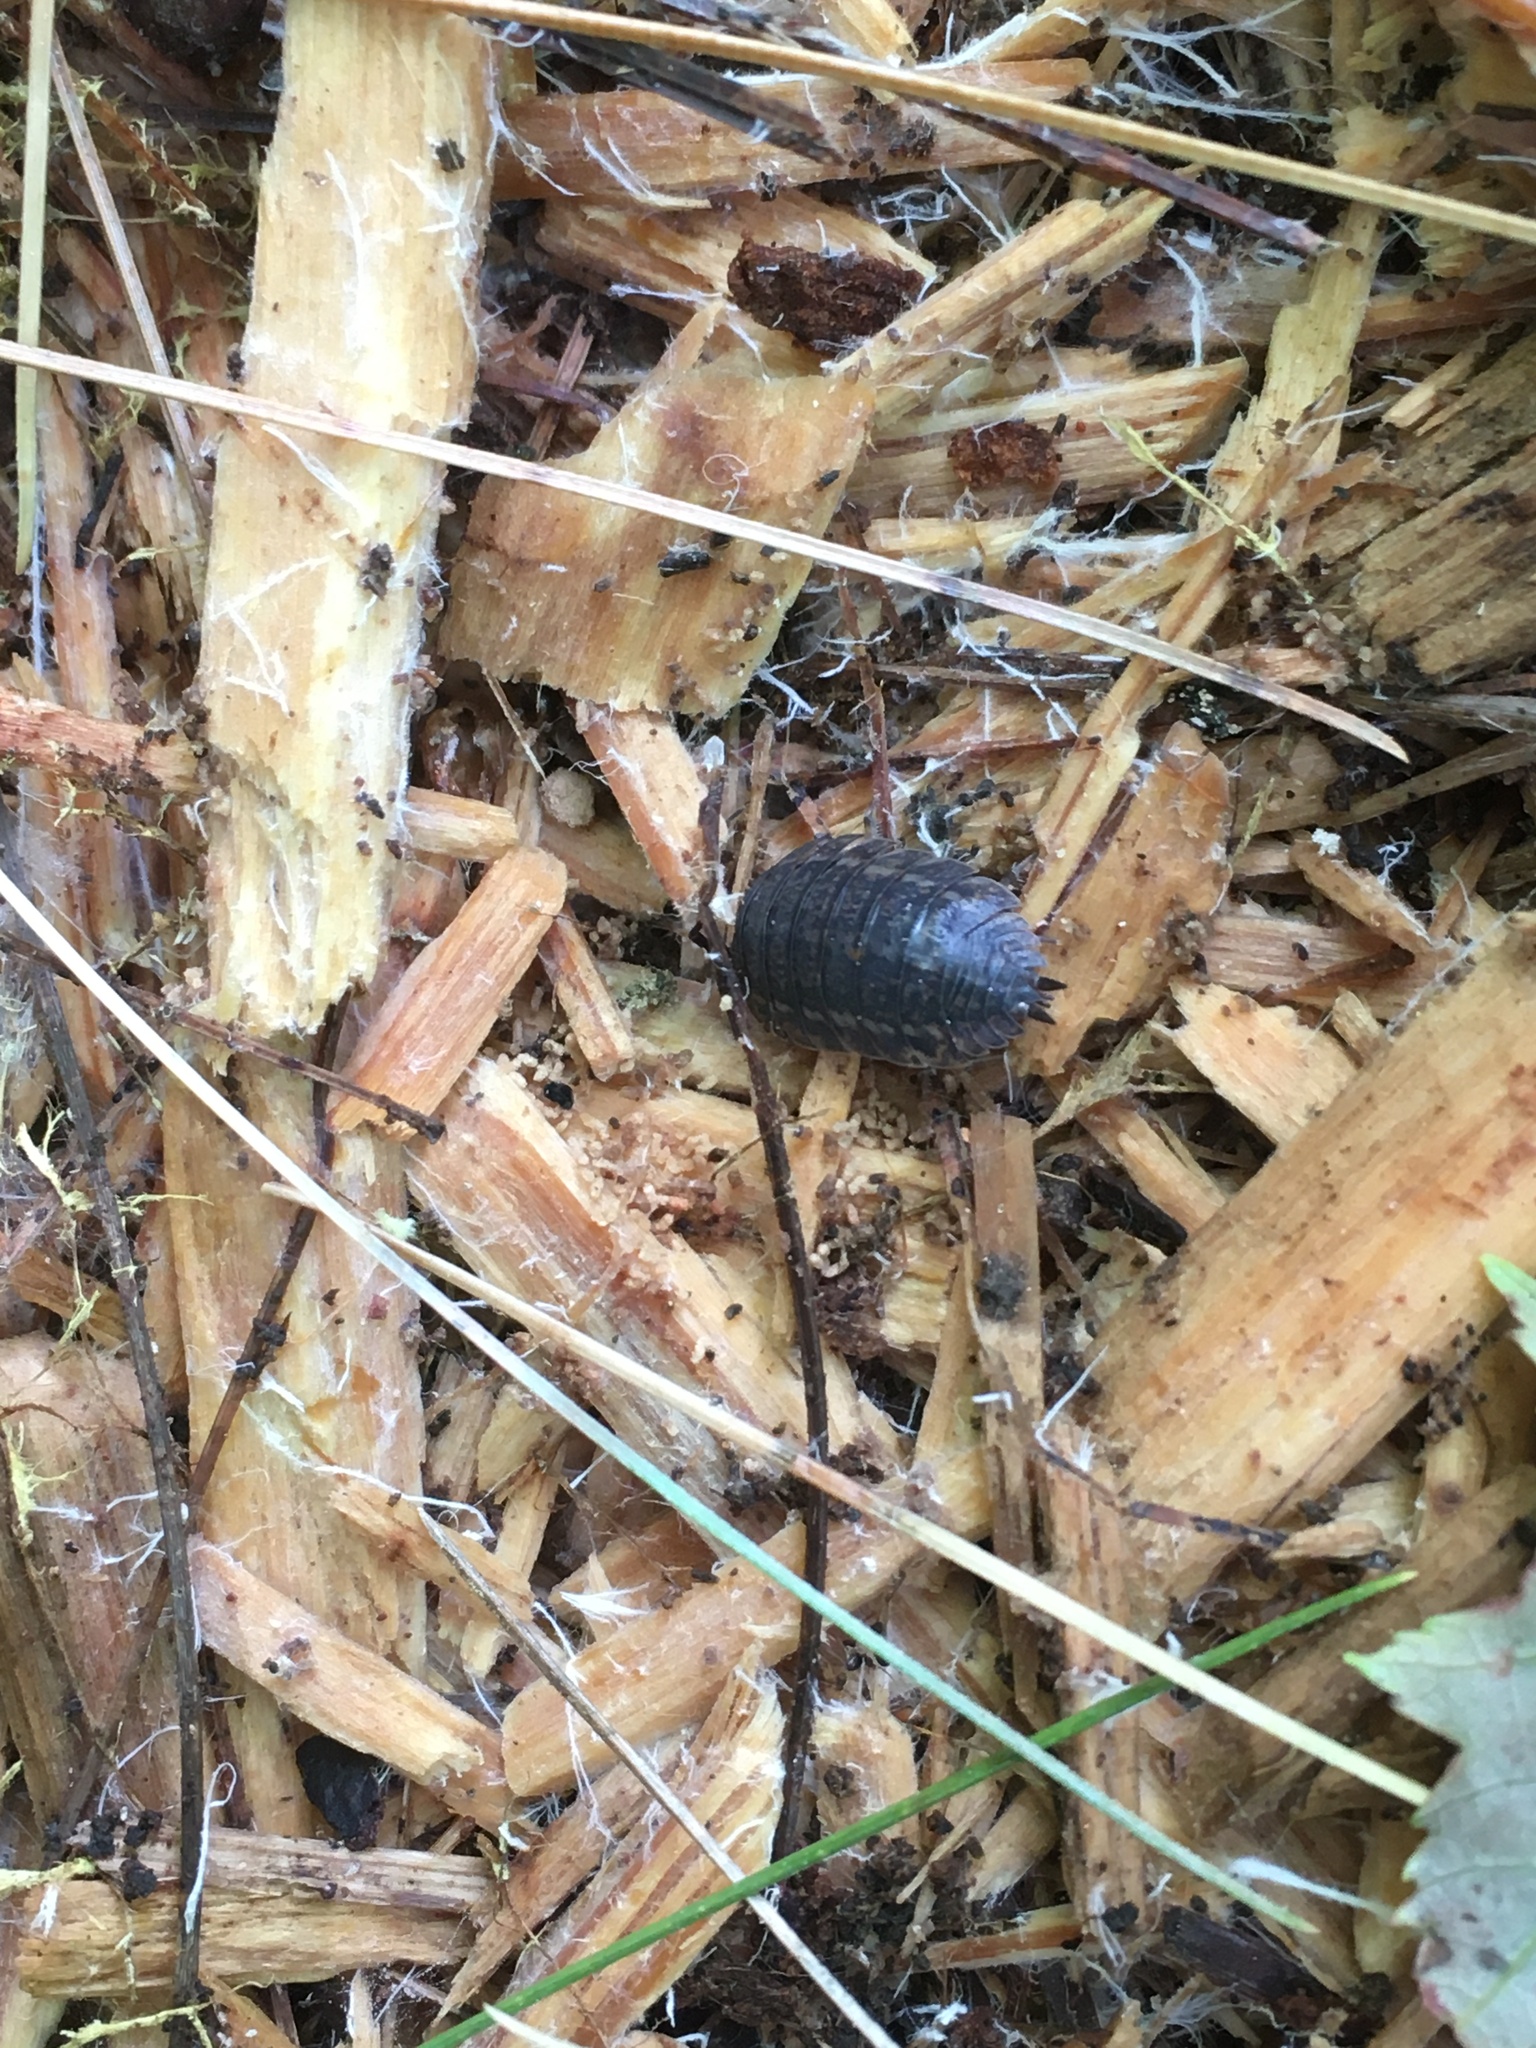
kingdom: Animalia
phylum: Arthropoda
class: Malacostraca
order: Isopoda
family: Trachelipodidae
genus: Trachelipus
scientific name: Trachelipus rathkii
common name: Isopod
